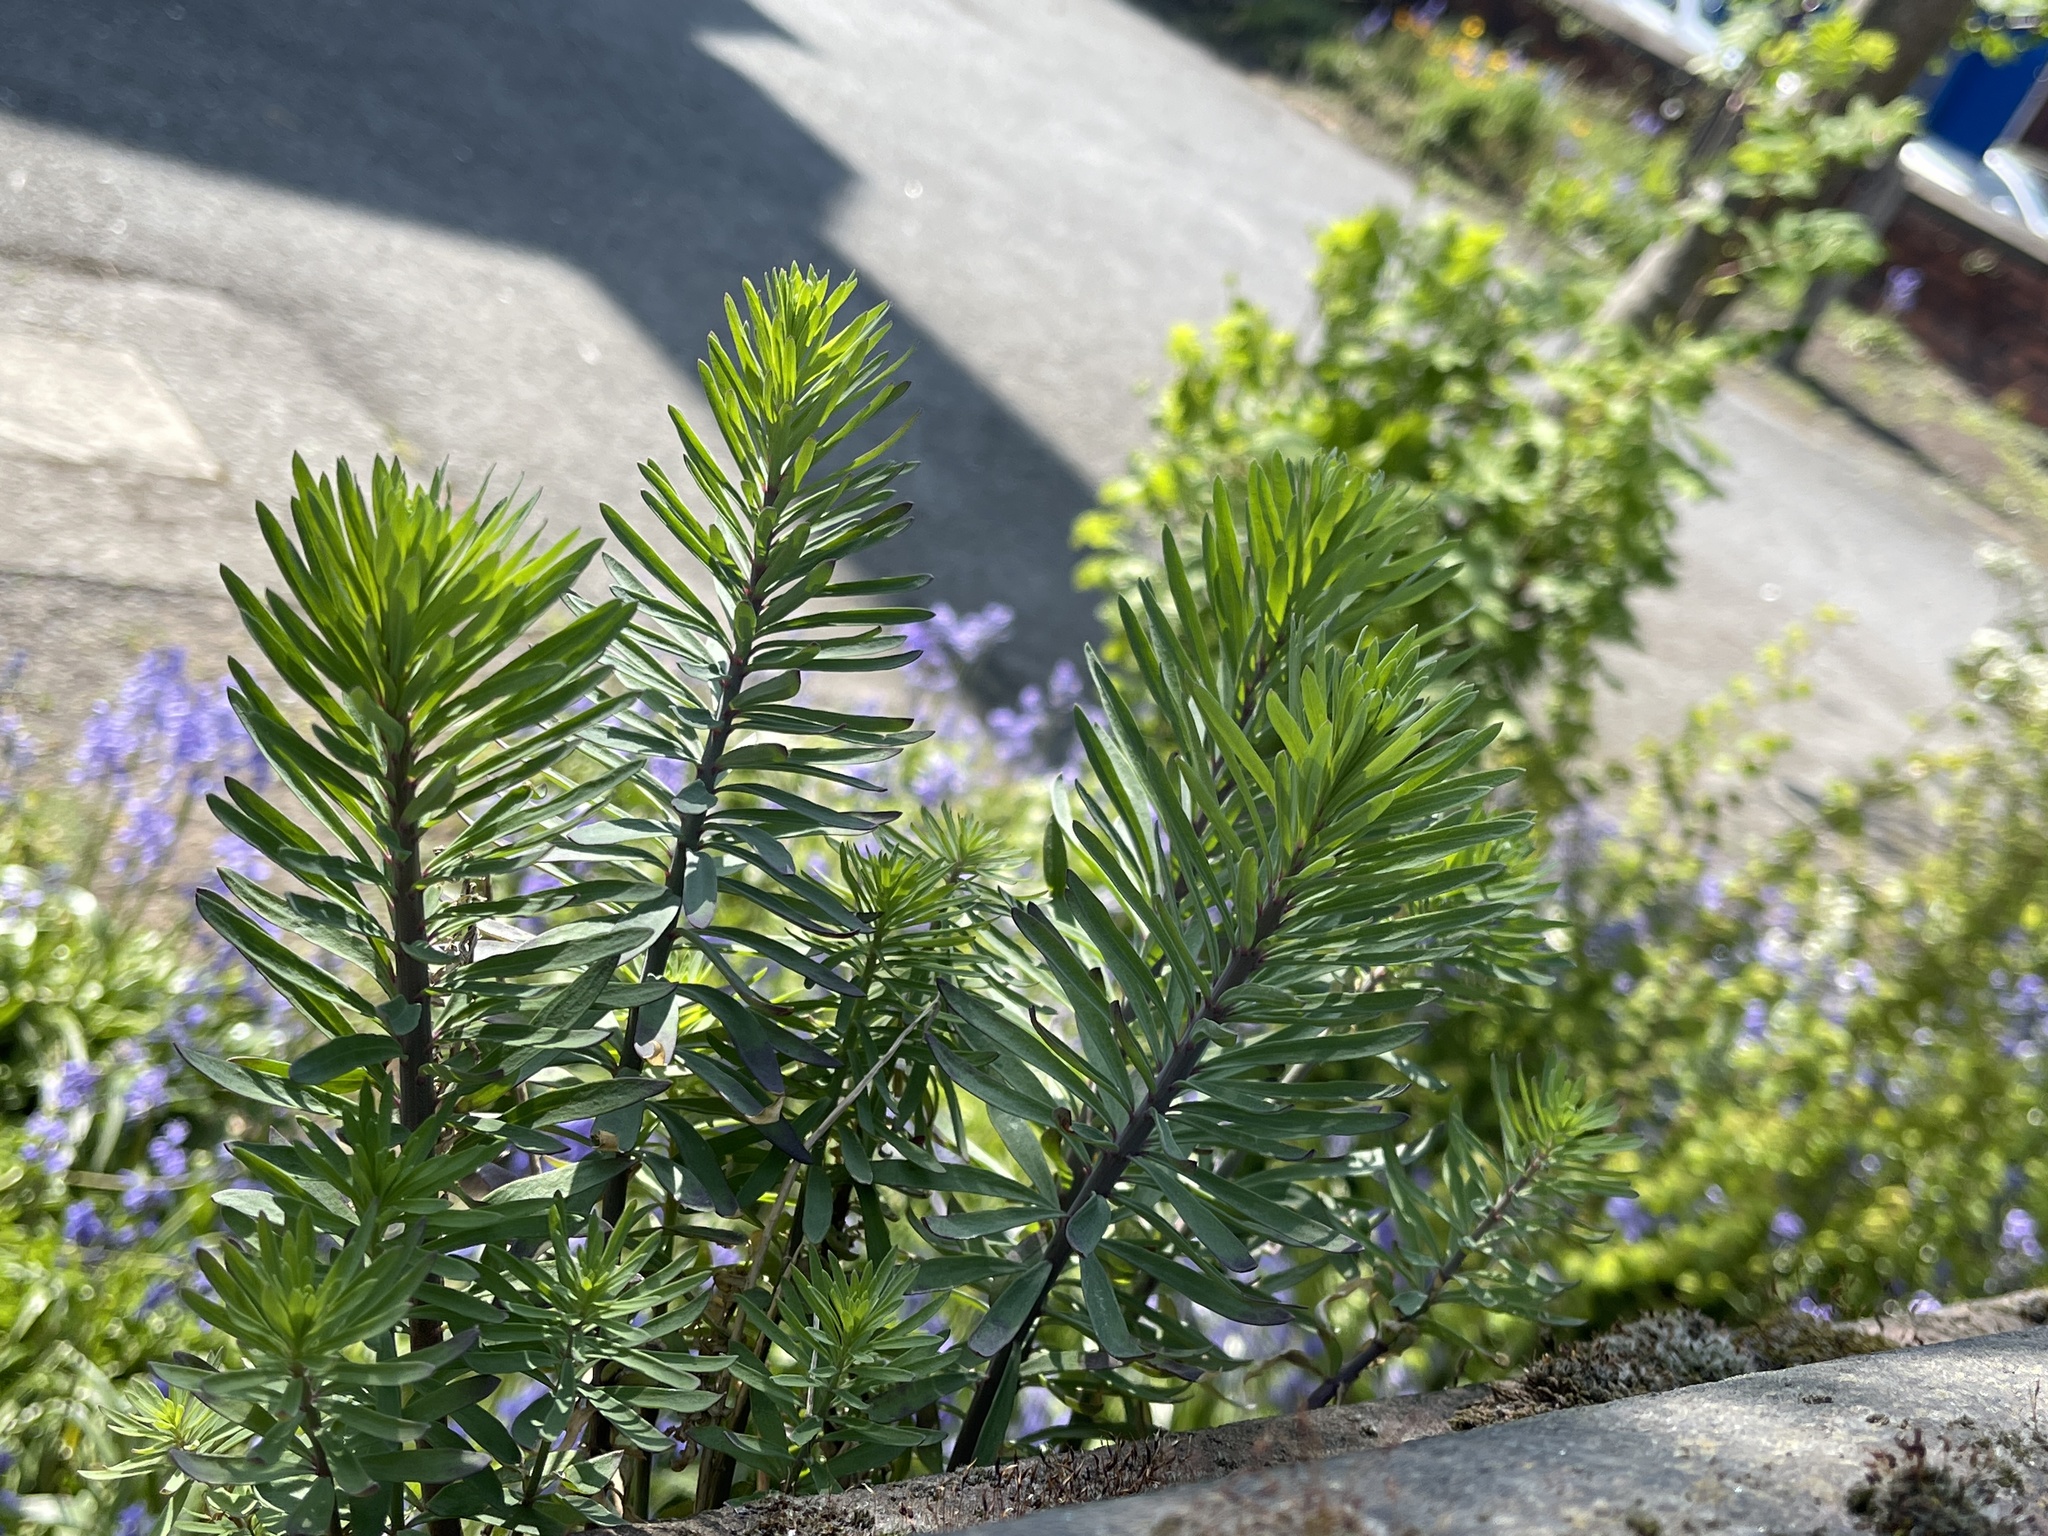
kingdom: Plantae
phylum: Tracheophyta
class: Magnoliopsida
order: Lamiales
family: Plantaginaceae
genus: Linaria
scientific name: Linaria purpurea
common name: Purple toadflax
